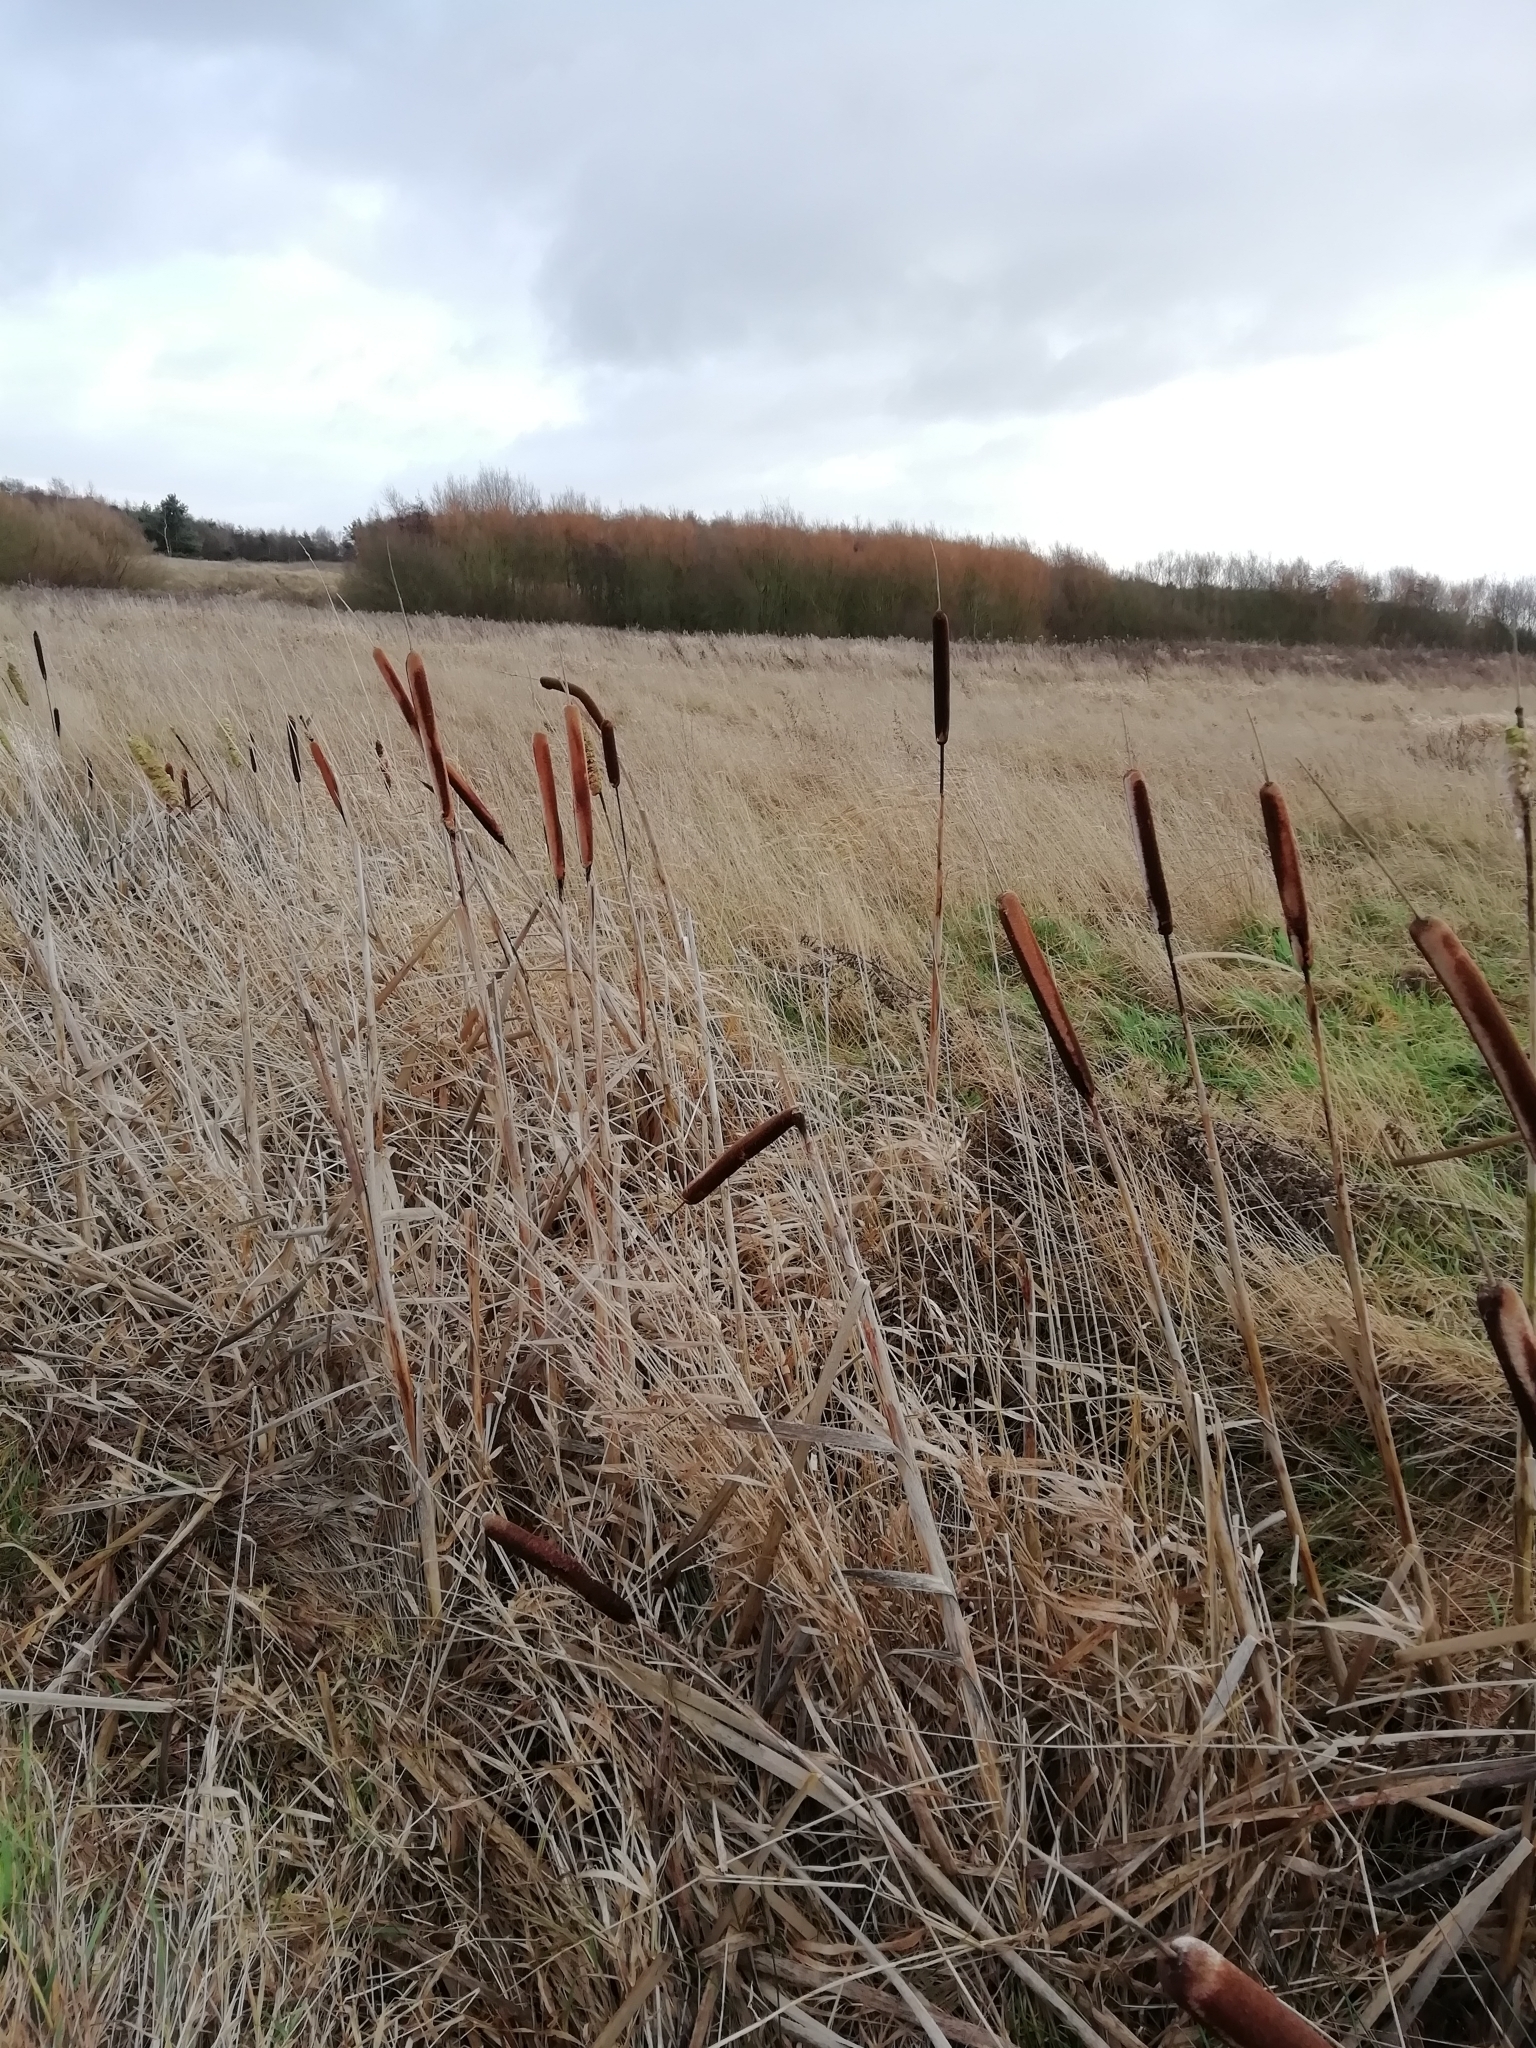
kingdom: Plantae
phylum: Tracheophyta
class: Liliopsida
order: Poales
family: Typhaceae
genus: Typha
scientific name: Typha latifolia
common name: Broadleaf cattail
